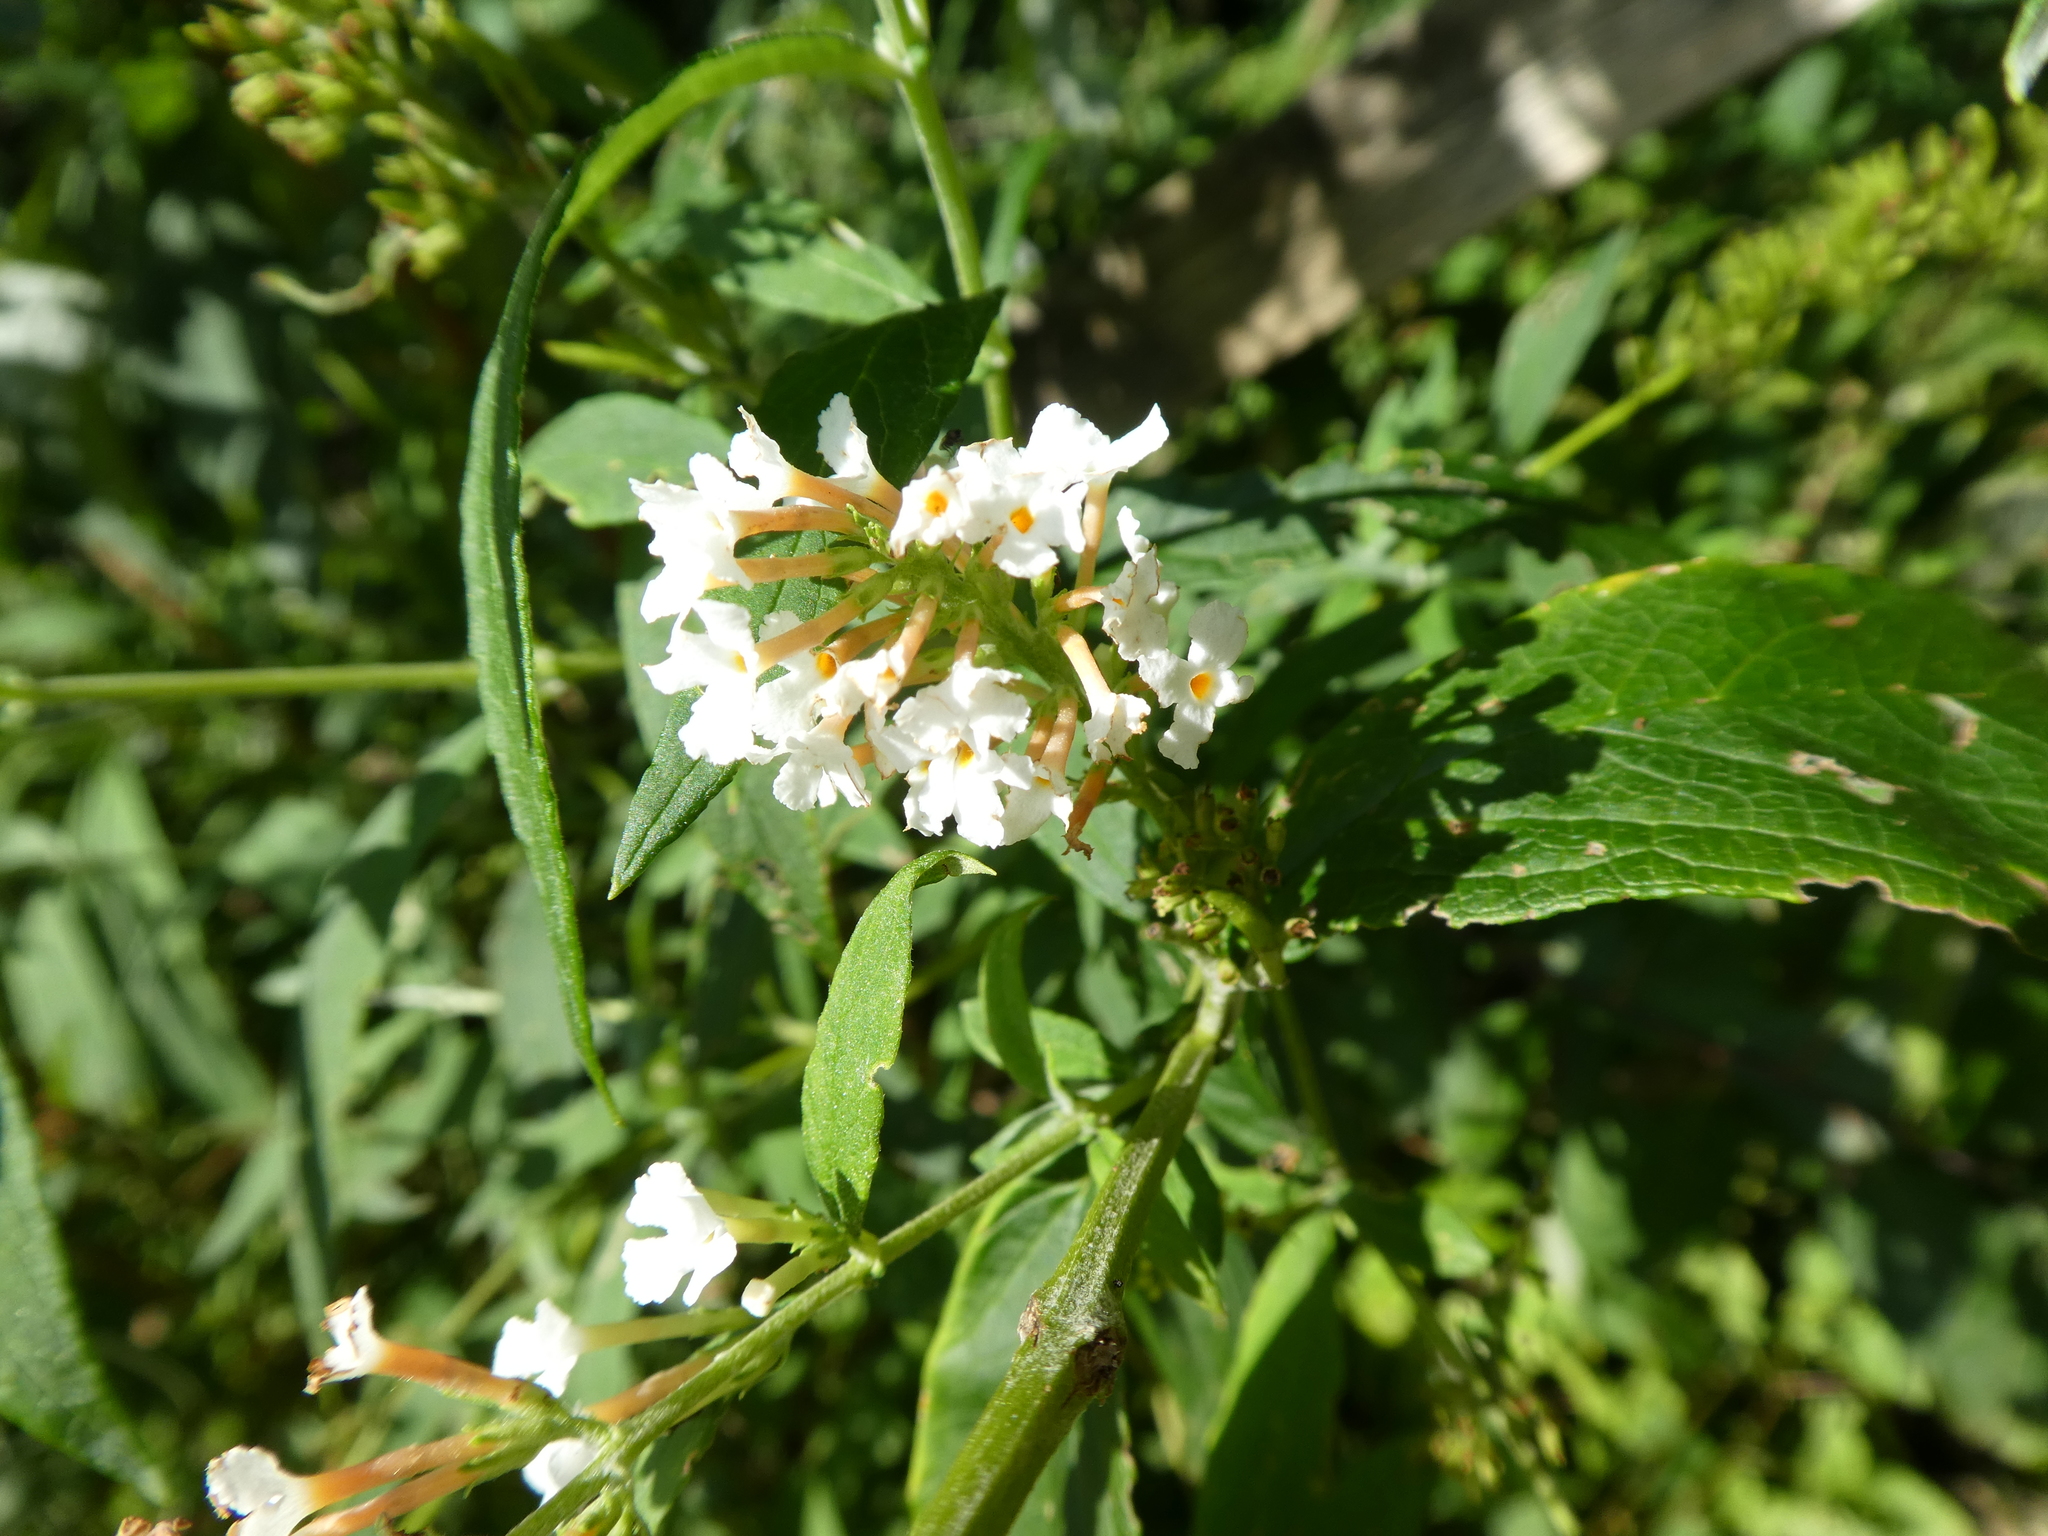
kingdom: Plantae
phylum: Tracheophyta
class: Magnoliopsida
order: Lamiales
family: Scrophulariaceae
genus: Buddleja
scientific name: Buddleja davidii
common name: Butterfly-bush
